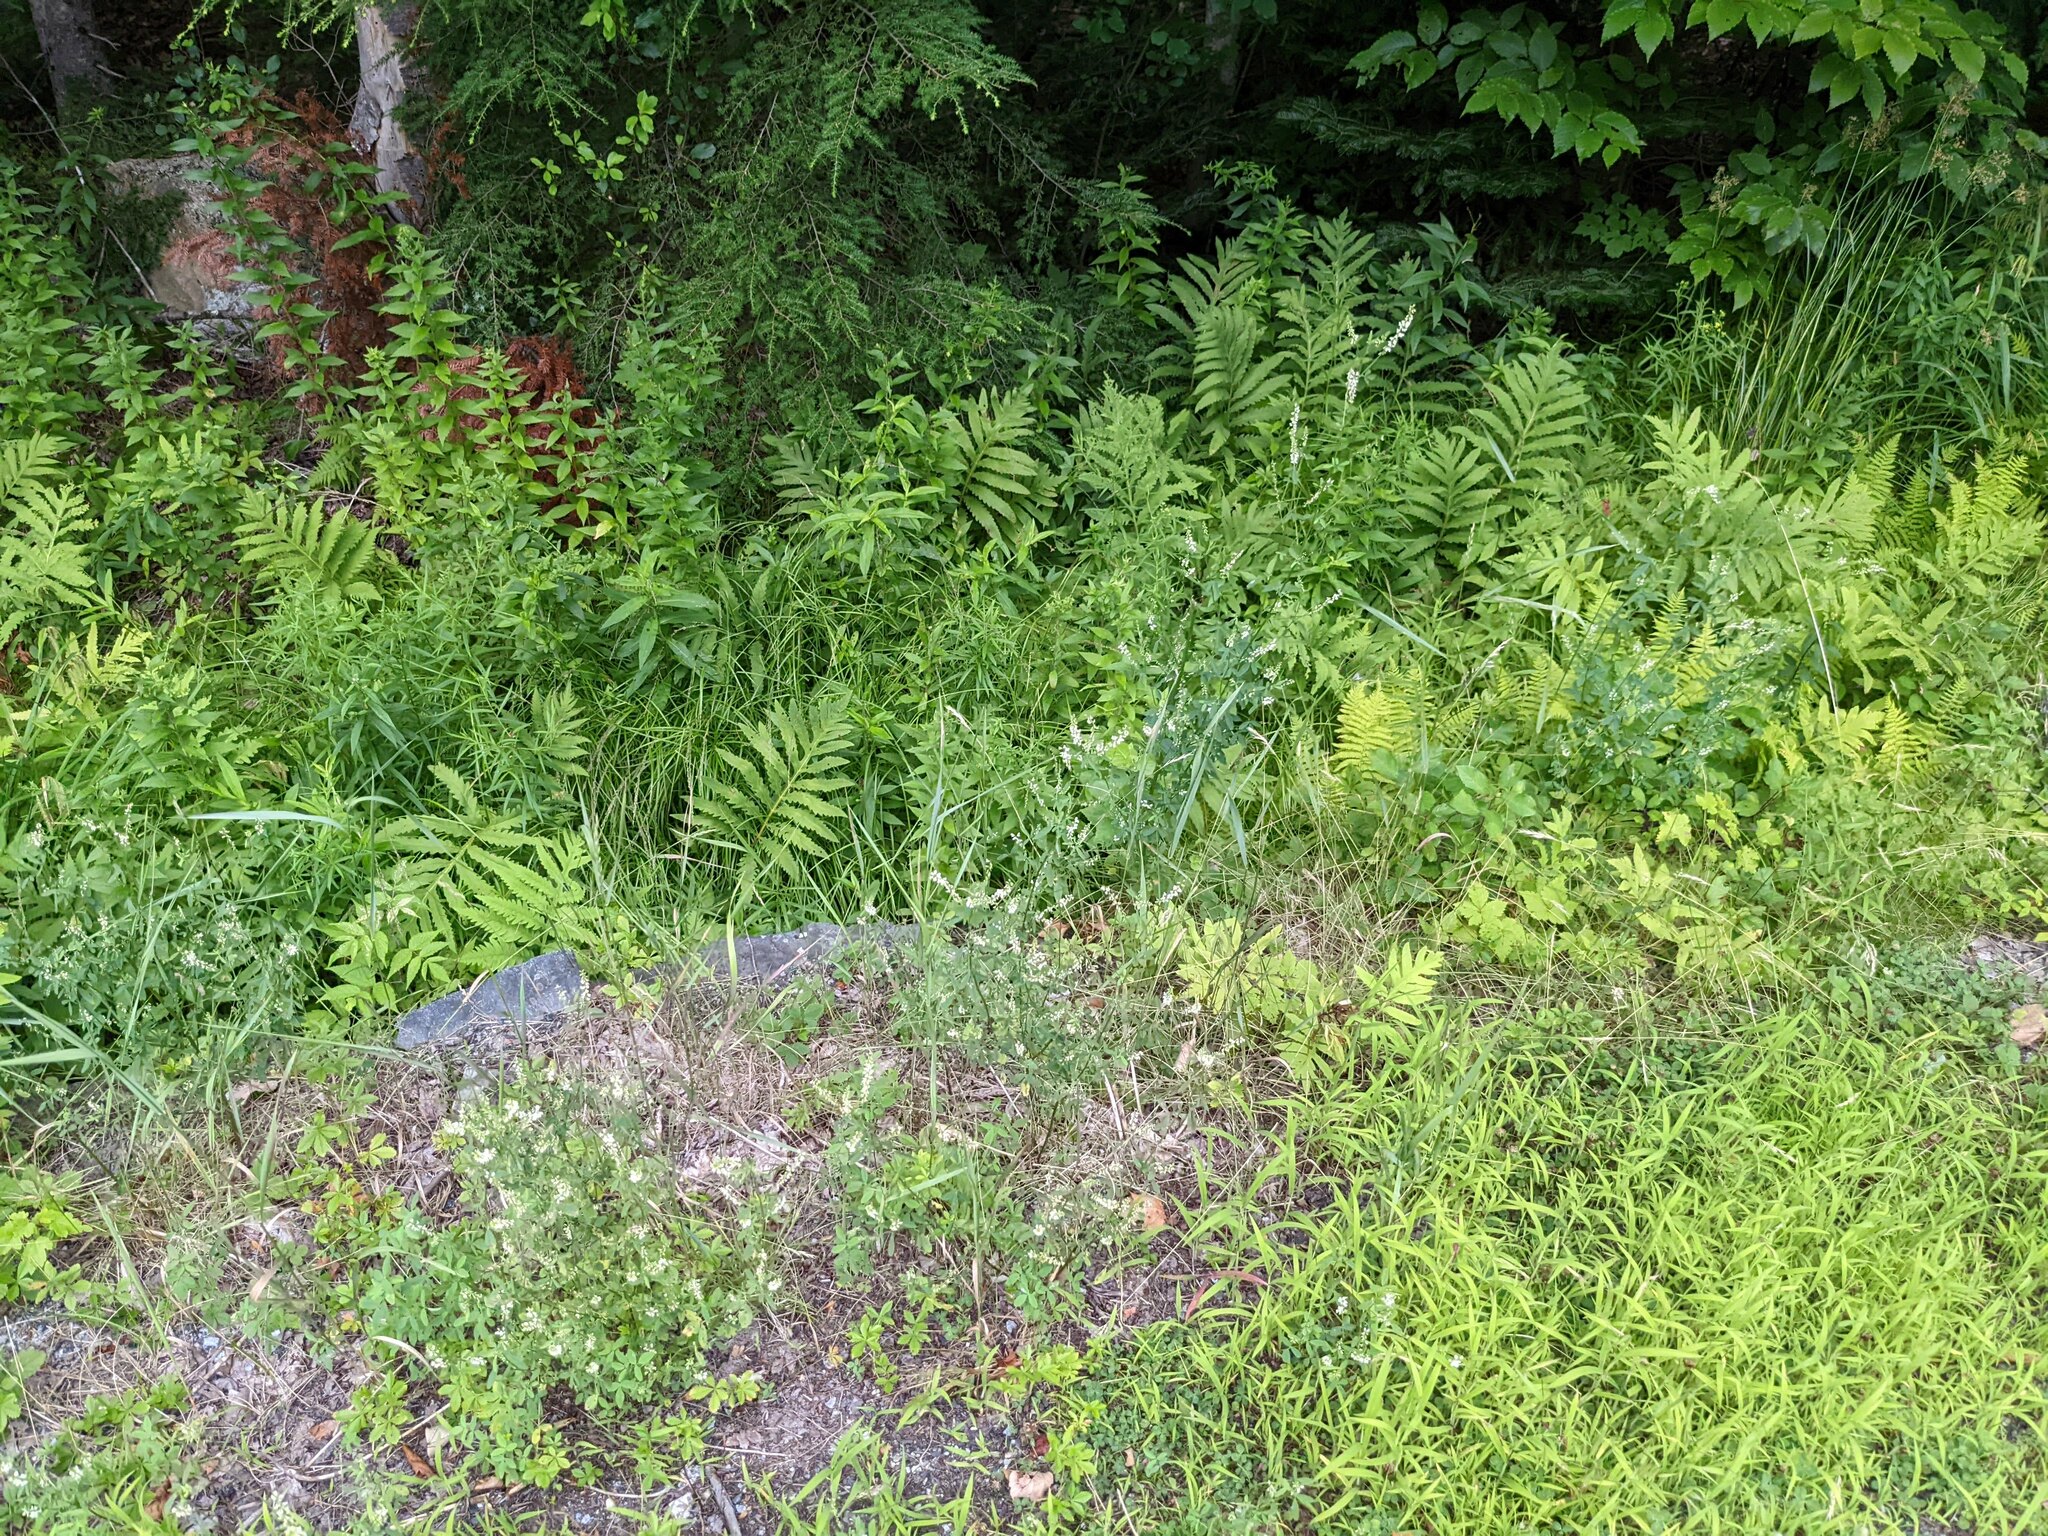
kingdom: Plantae
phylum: Tracheophyta
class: Polypodiopsida
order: Polypodiales
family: Onocleaceae
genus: Onoclea
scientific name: Onoclea sensibilis
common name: Sensitive fern
